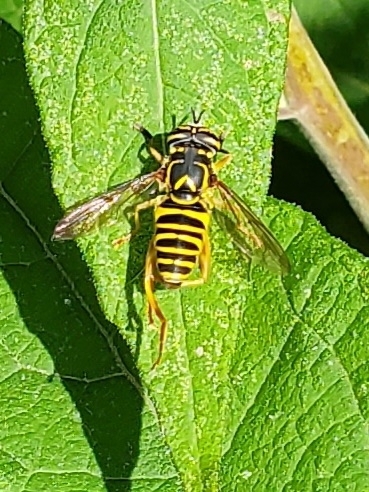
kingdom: Animalia
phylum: Arthropoda
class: Insecta
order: Diptera
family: Syrphidae
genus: Spilomyia
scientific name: Spilomyia longicornis
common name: Eastern hornet fly
